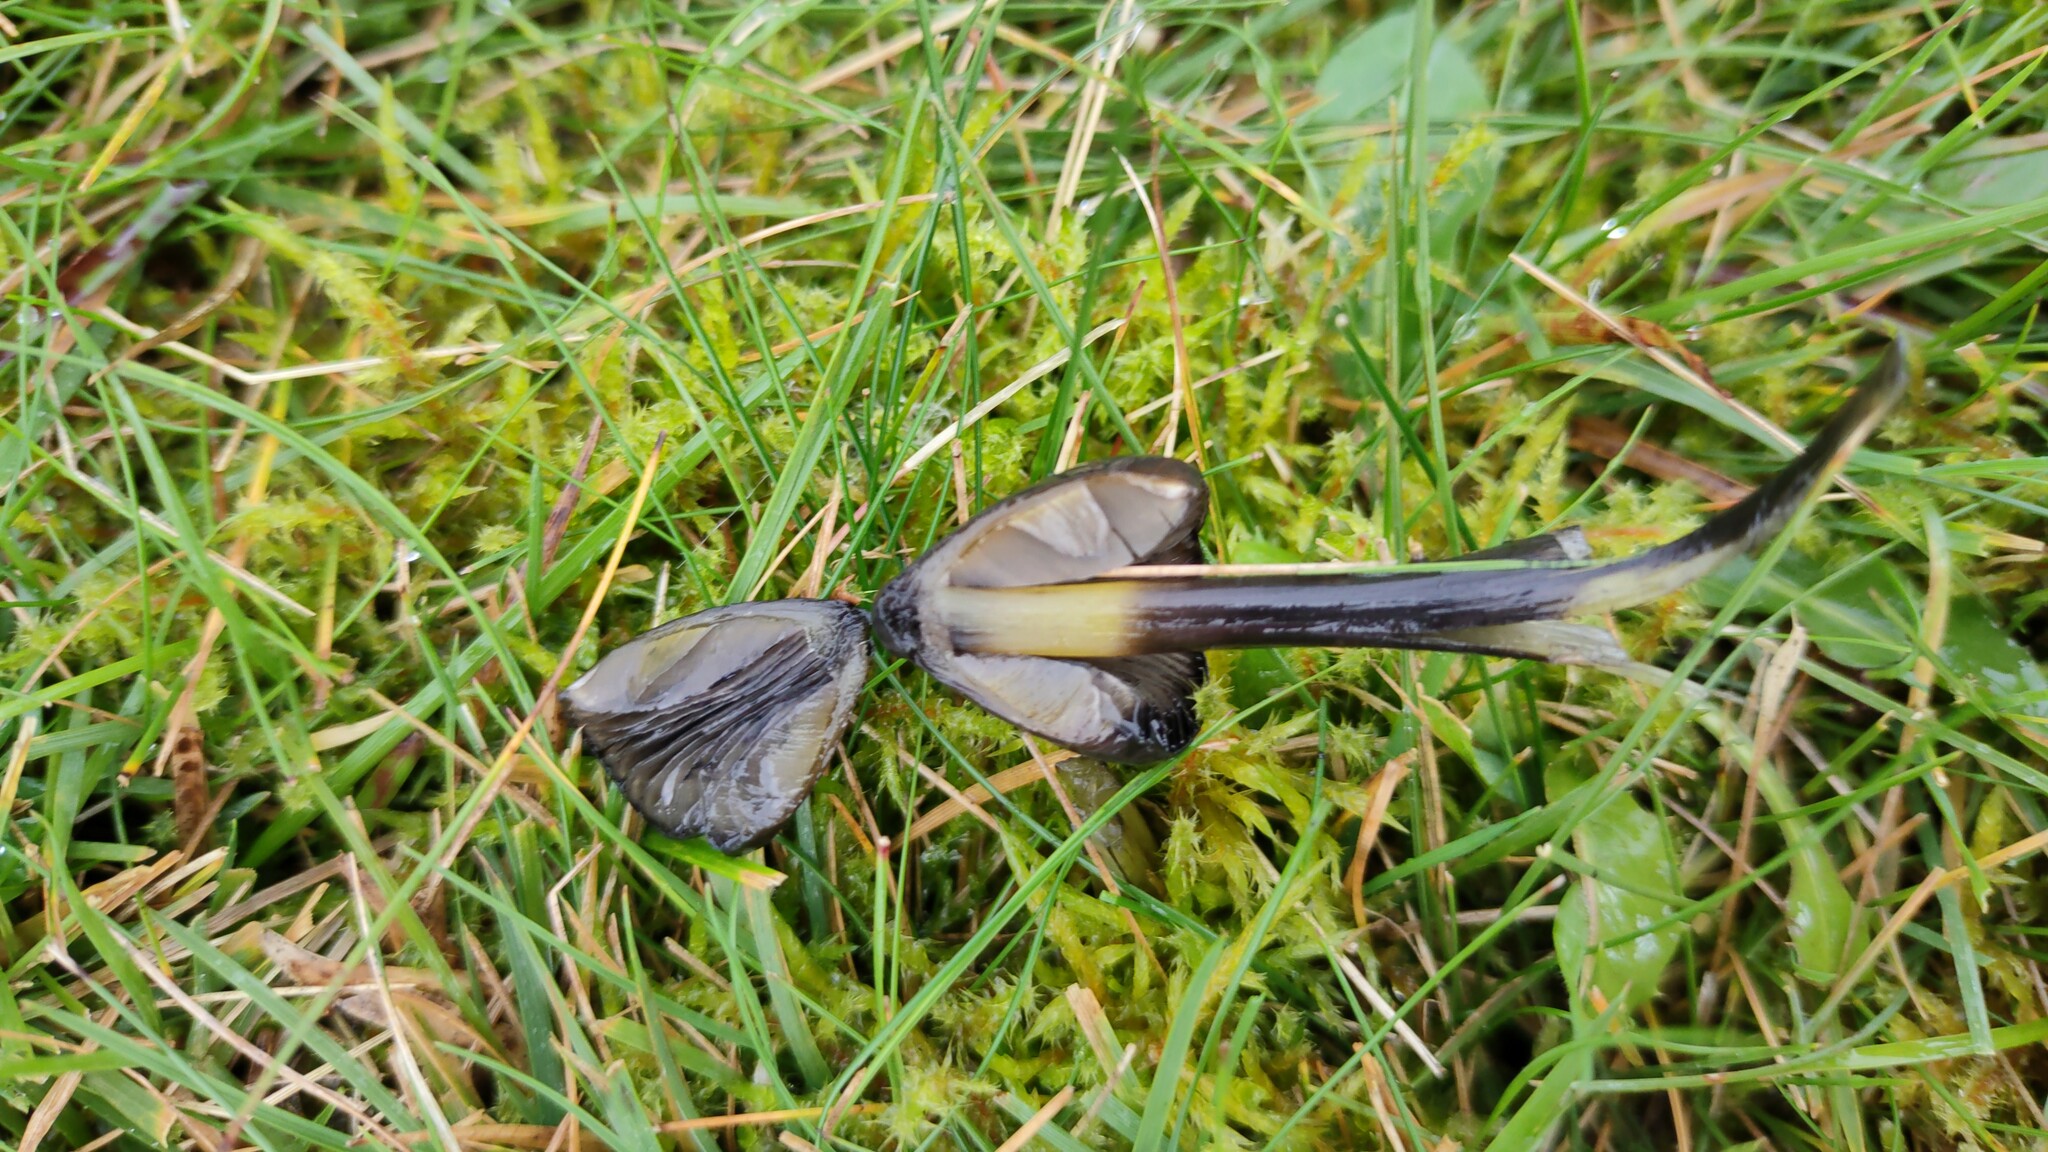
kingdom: Fungi
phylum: Basidiomycota
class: Agaricomycetes
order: Agaricales
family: Hygrophoraceae
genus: Hygrocybe
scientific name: Hygrocybe conica
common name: Blackening wax-cap
